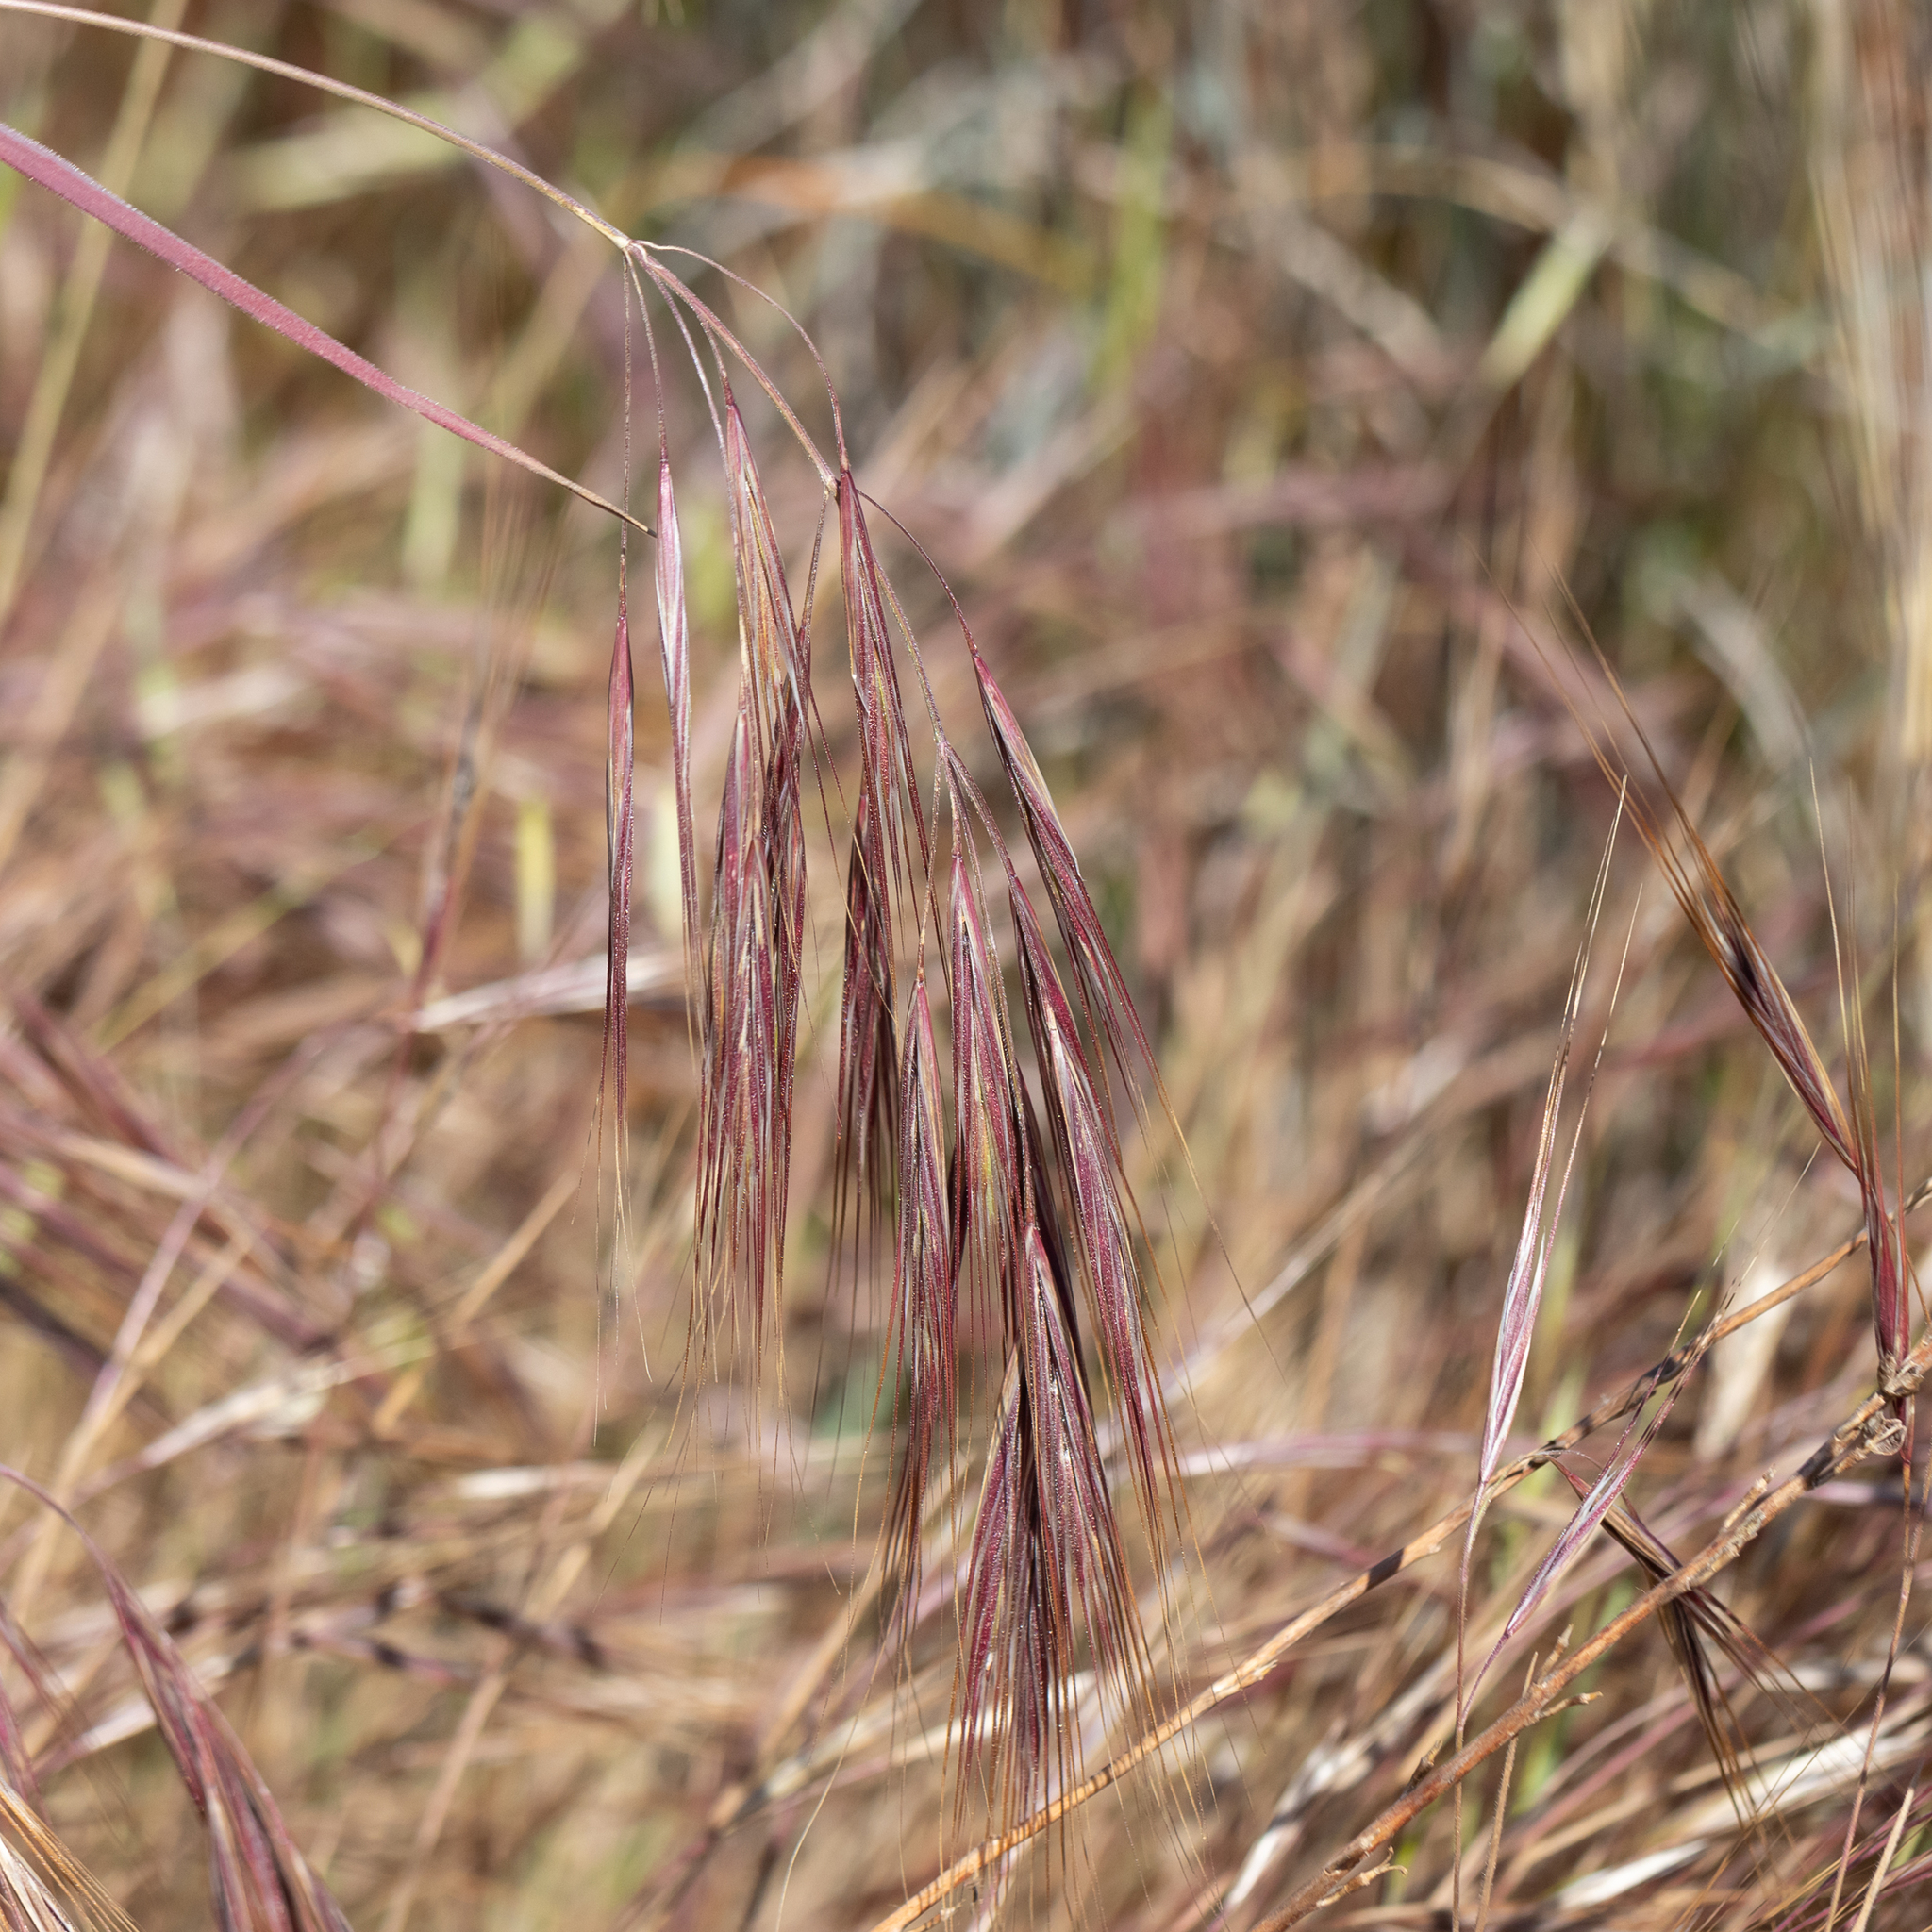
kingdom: Plantae
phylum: Tracheophyta
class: Liliopsida
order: Poales
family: Poaceae
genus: Bromus
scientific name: Bromus diandrus
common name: Ripgut brome
